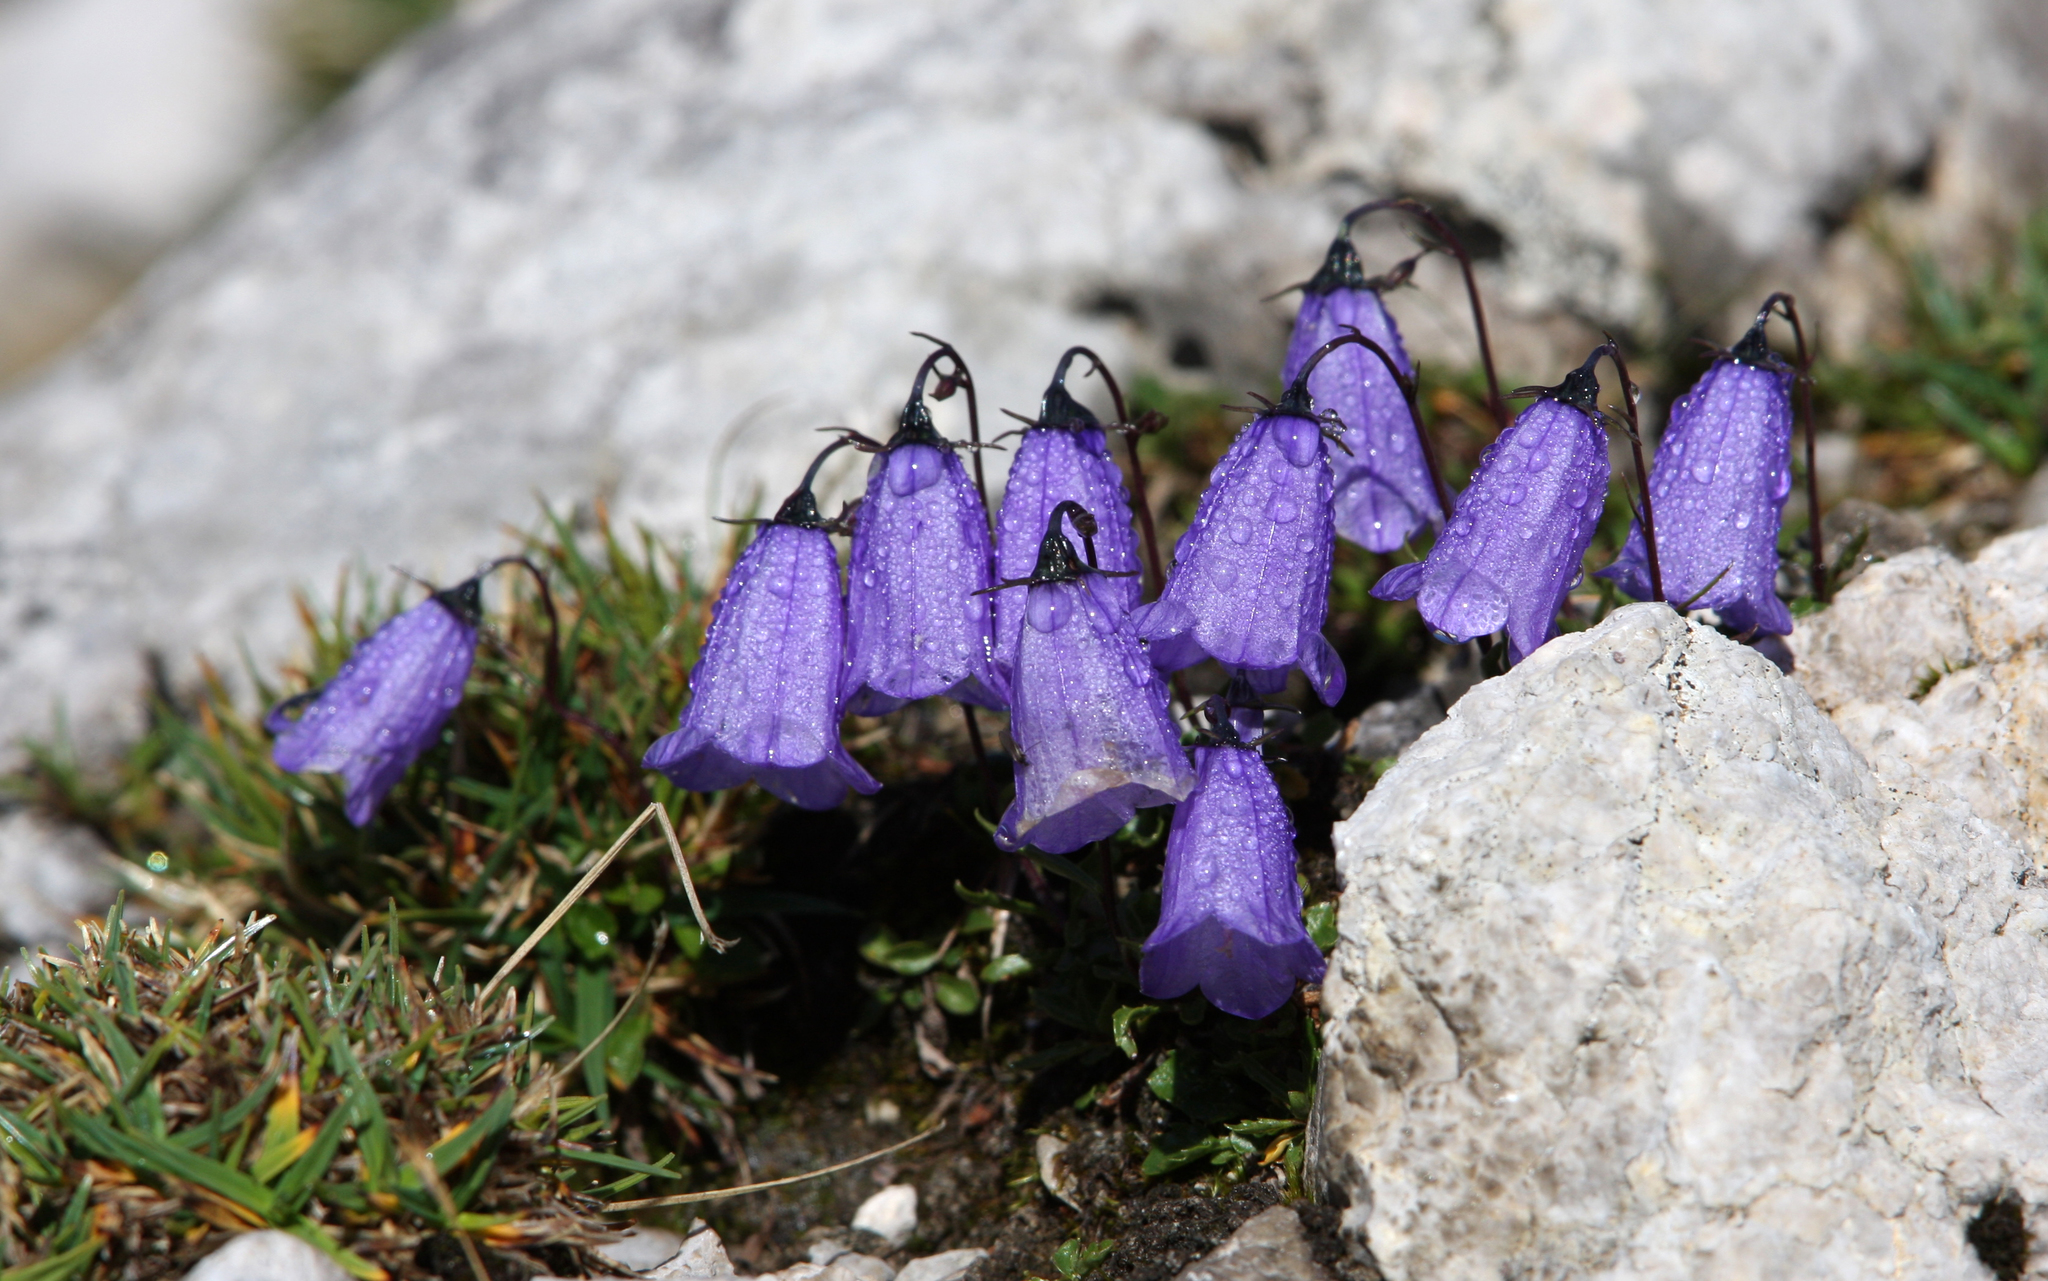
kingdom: Plantae
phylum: Tracheophyta
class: Magnoliopsida
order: Asterales
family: Campanulaceae
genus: Campanula
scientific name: Campanula cochleariifolia
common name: Fairies'-thimbles
